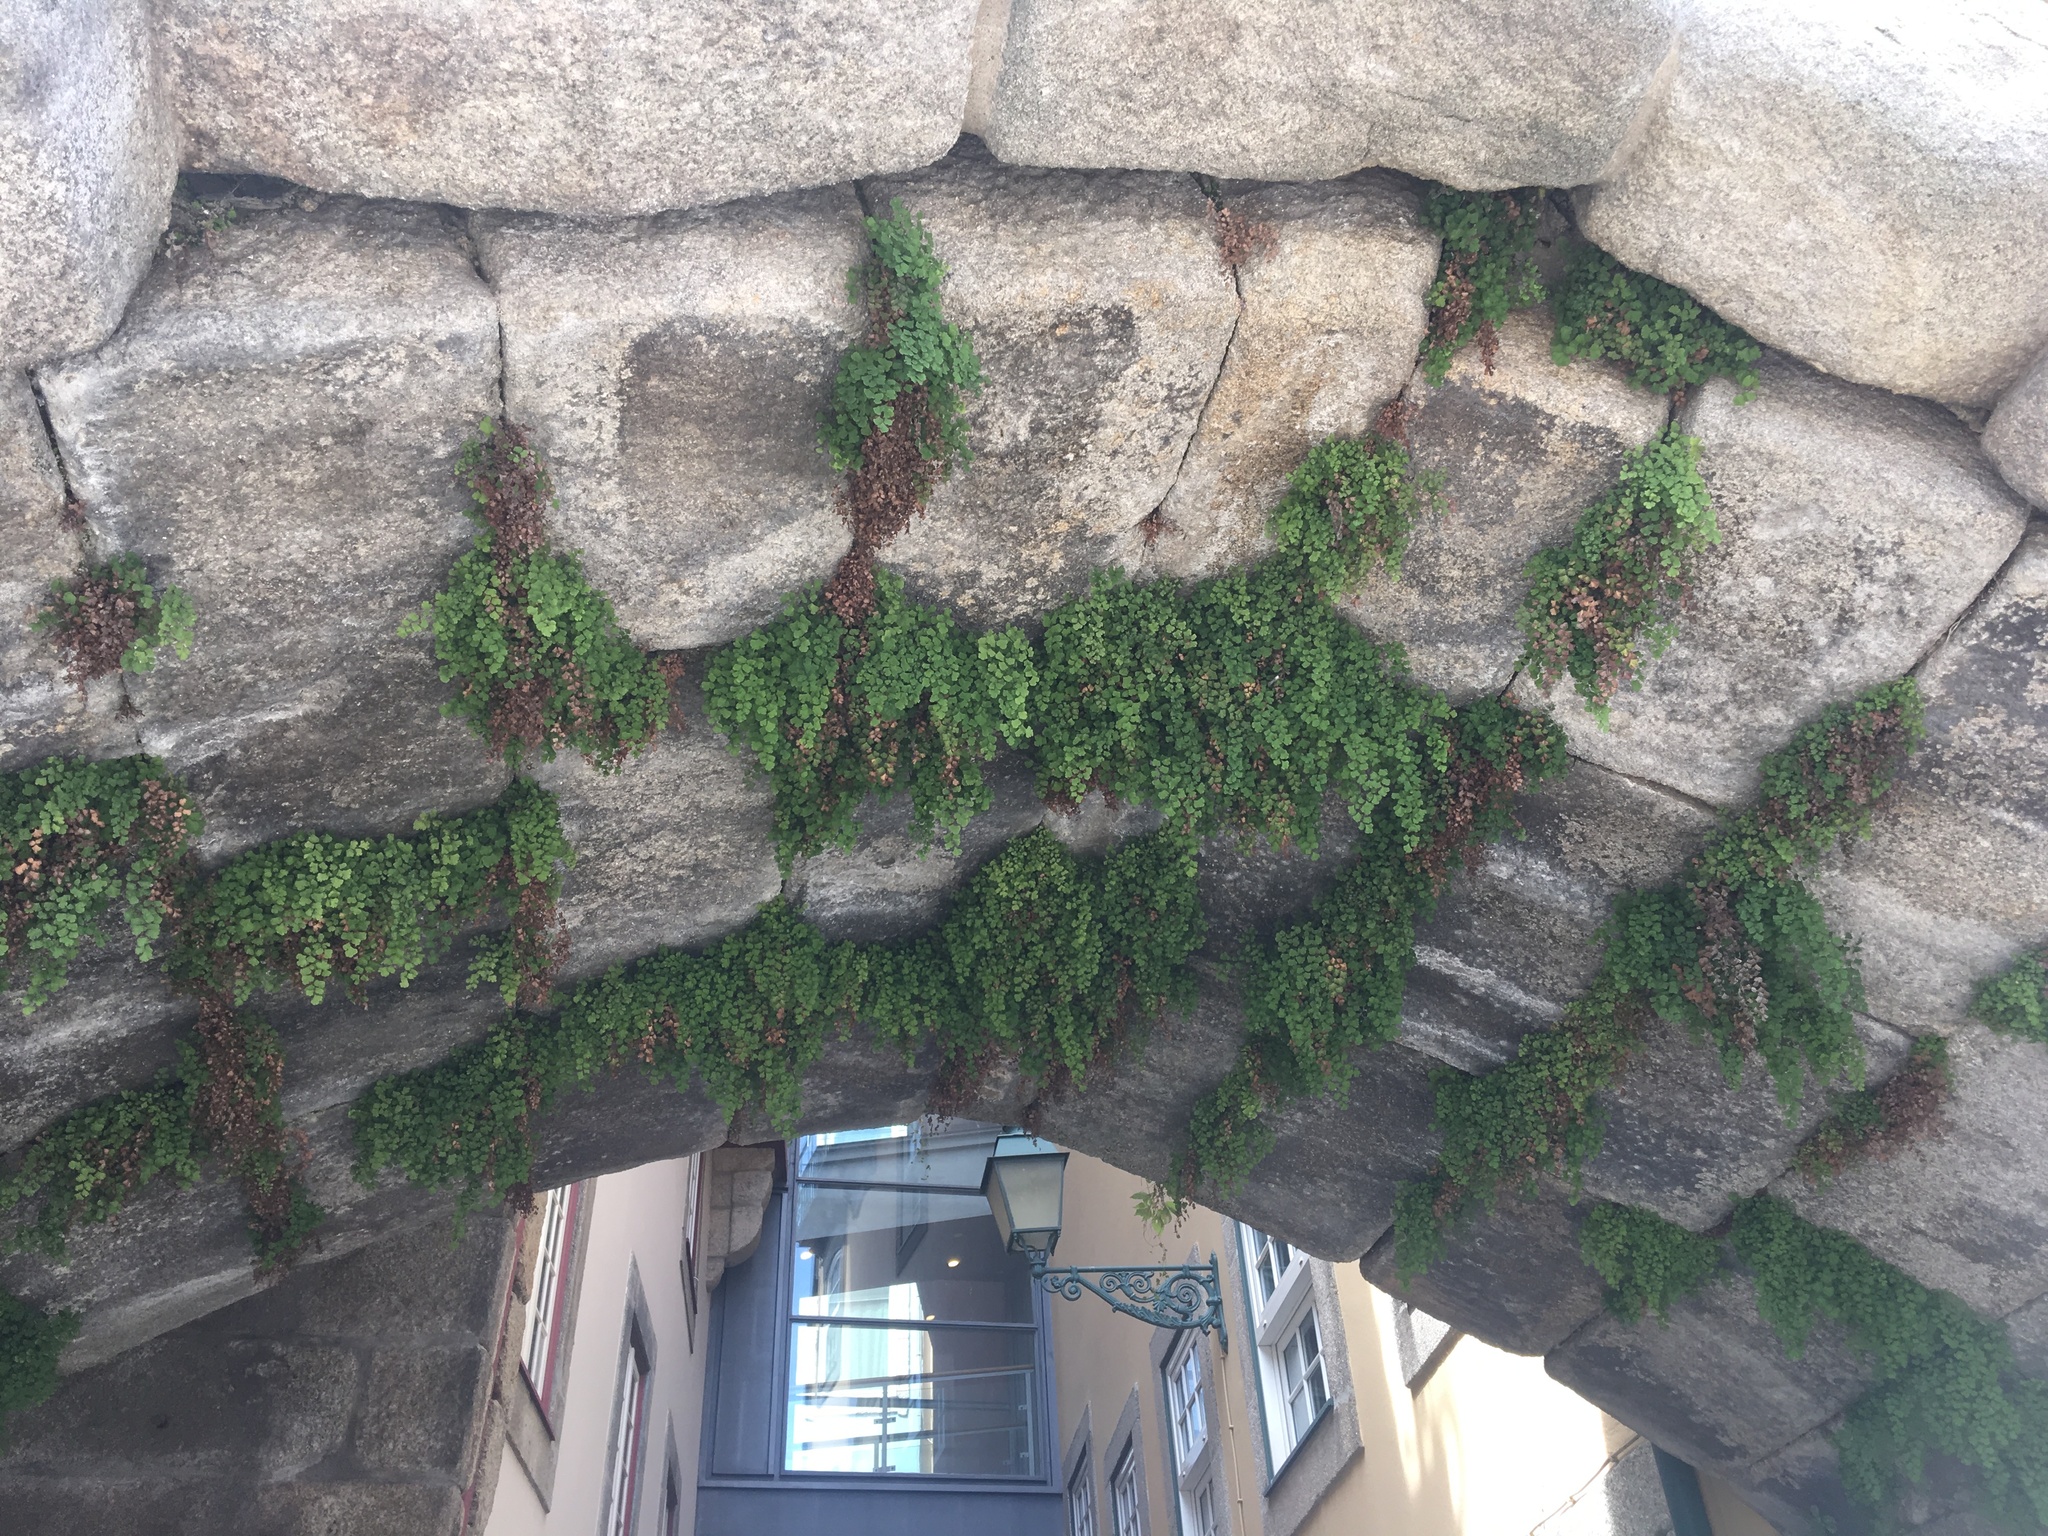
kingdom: Plantae
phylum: Tracheophyta
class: Polypodiopsida
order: Polypodiales
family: Pteridaceae
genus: Adiantum
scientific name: Adiantum capillus-veneris
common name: Maidenhair fern
